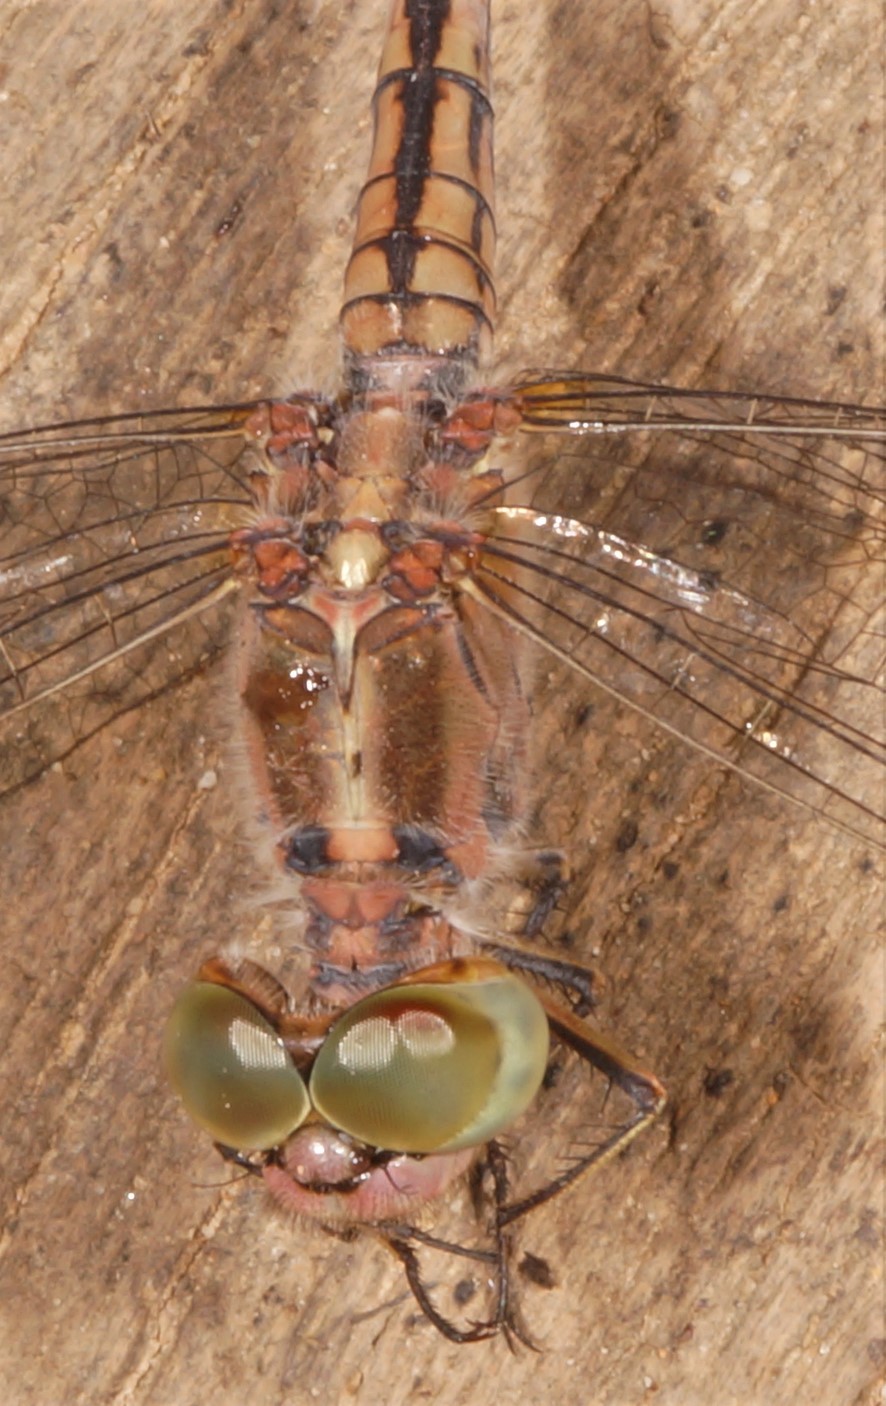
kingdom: Animalia
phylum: Arthropoda
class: Insecta
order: Odonata
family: Libellulidae
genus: Diplacodes
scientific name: Diplacodes trivialis
